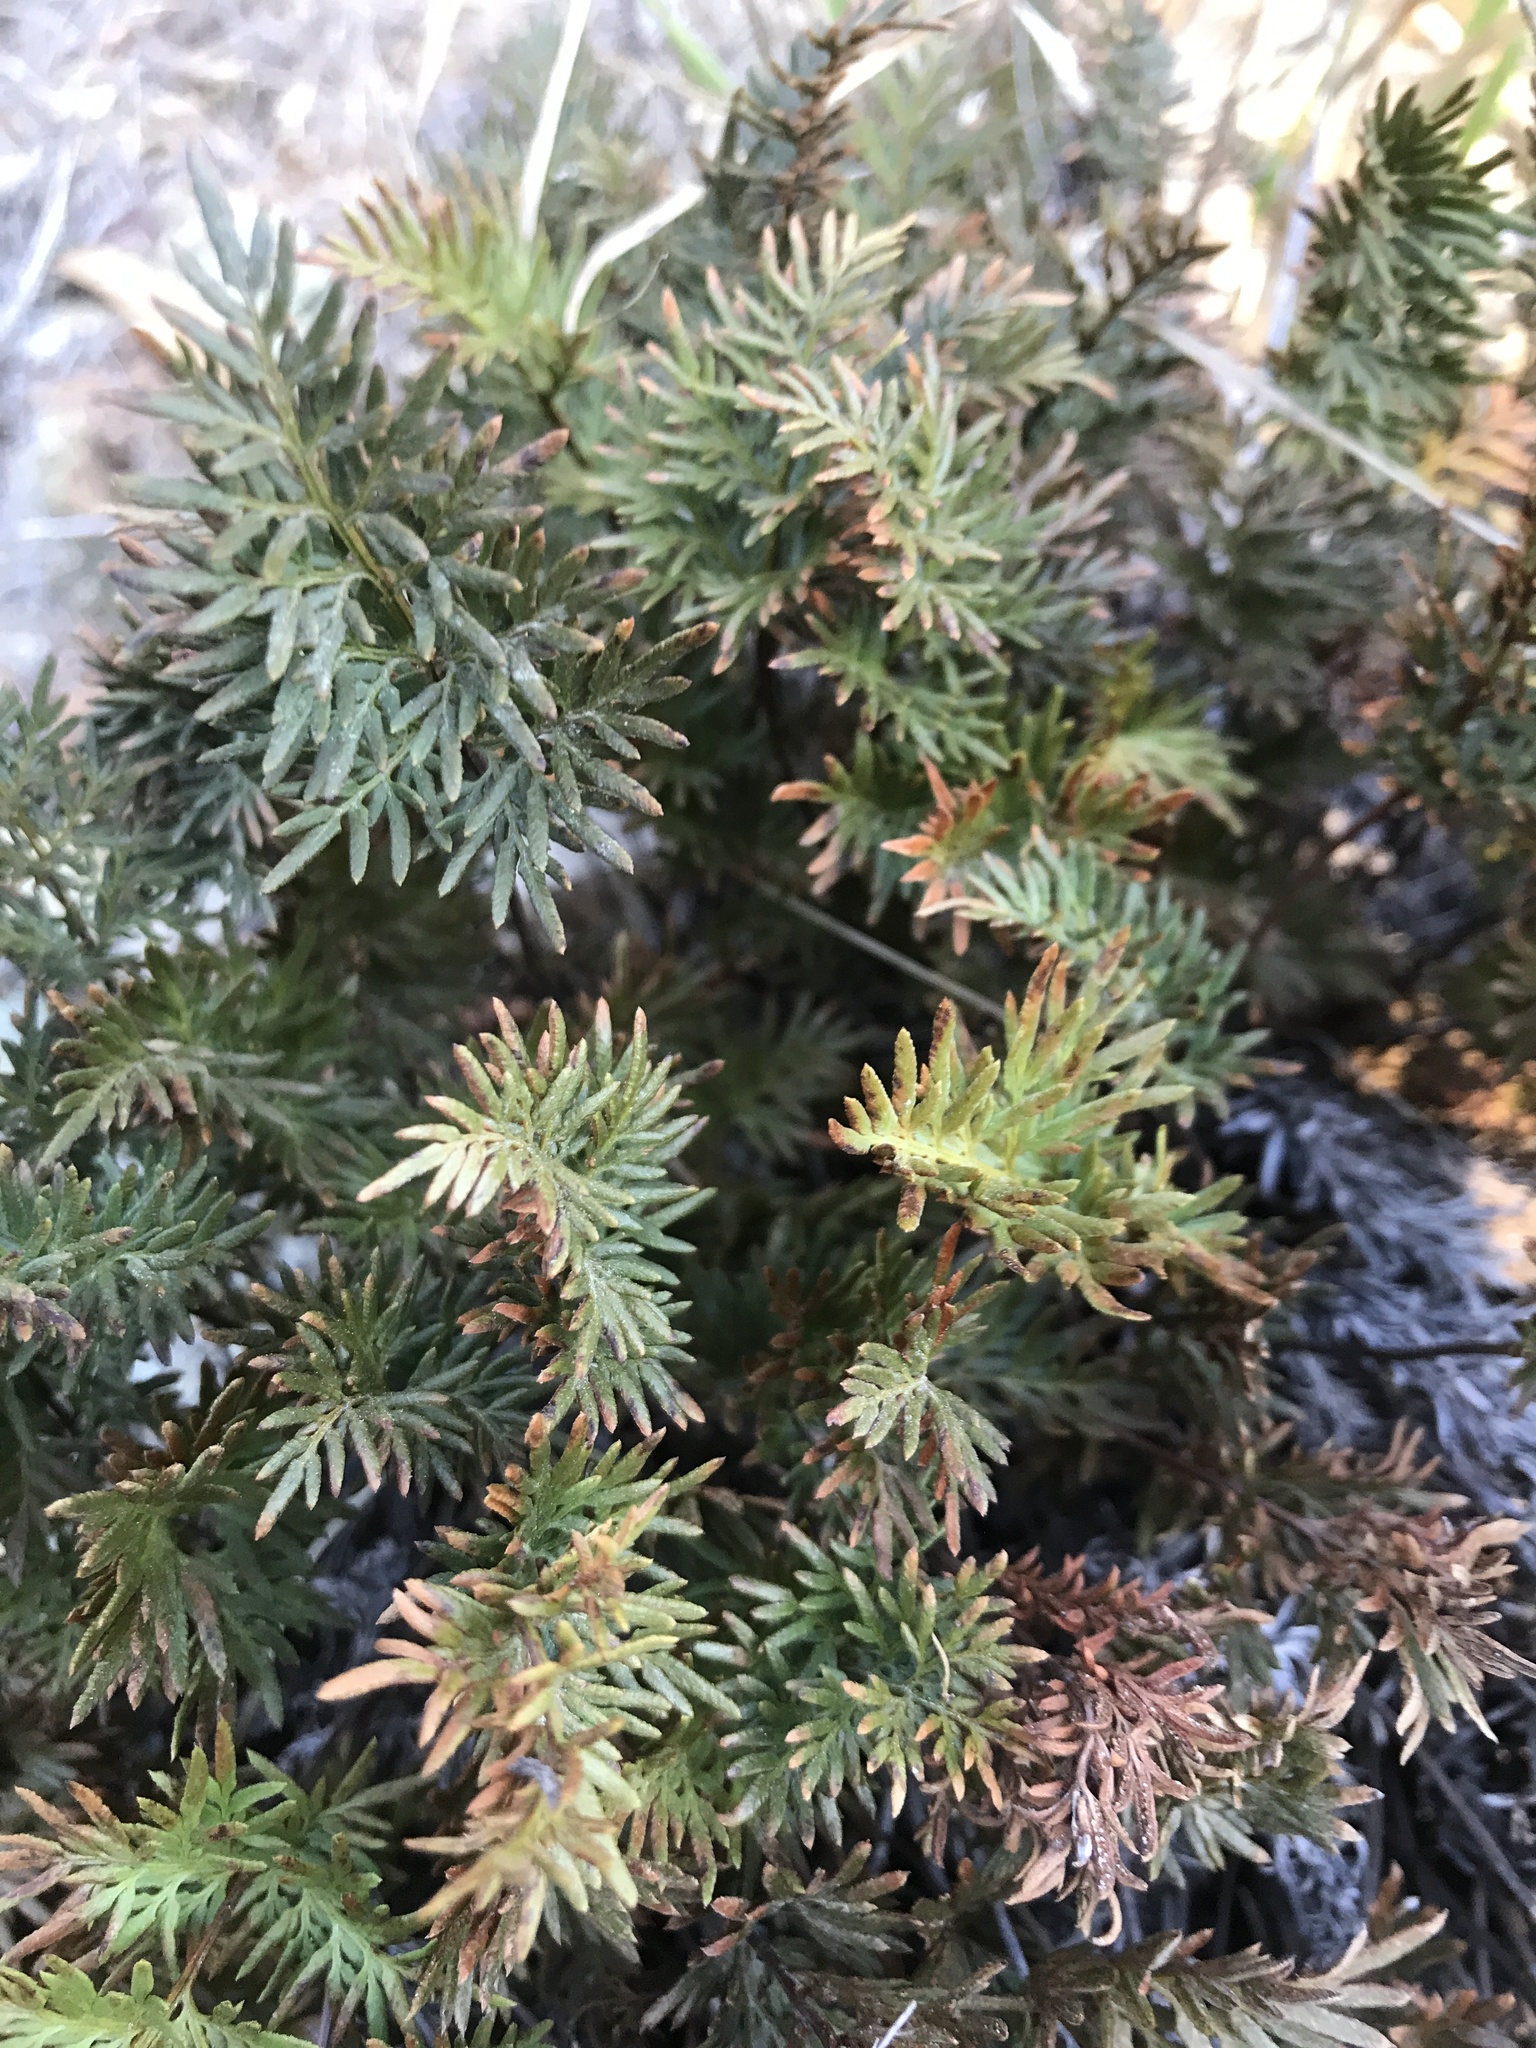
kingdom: Plantae
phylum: Tracheophyta
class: Polypodiopsida
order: Polypodiales
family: Pteridaceae
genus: Aspidotis
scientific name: Aspidotis densa
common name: Indian's dream
